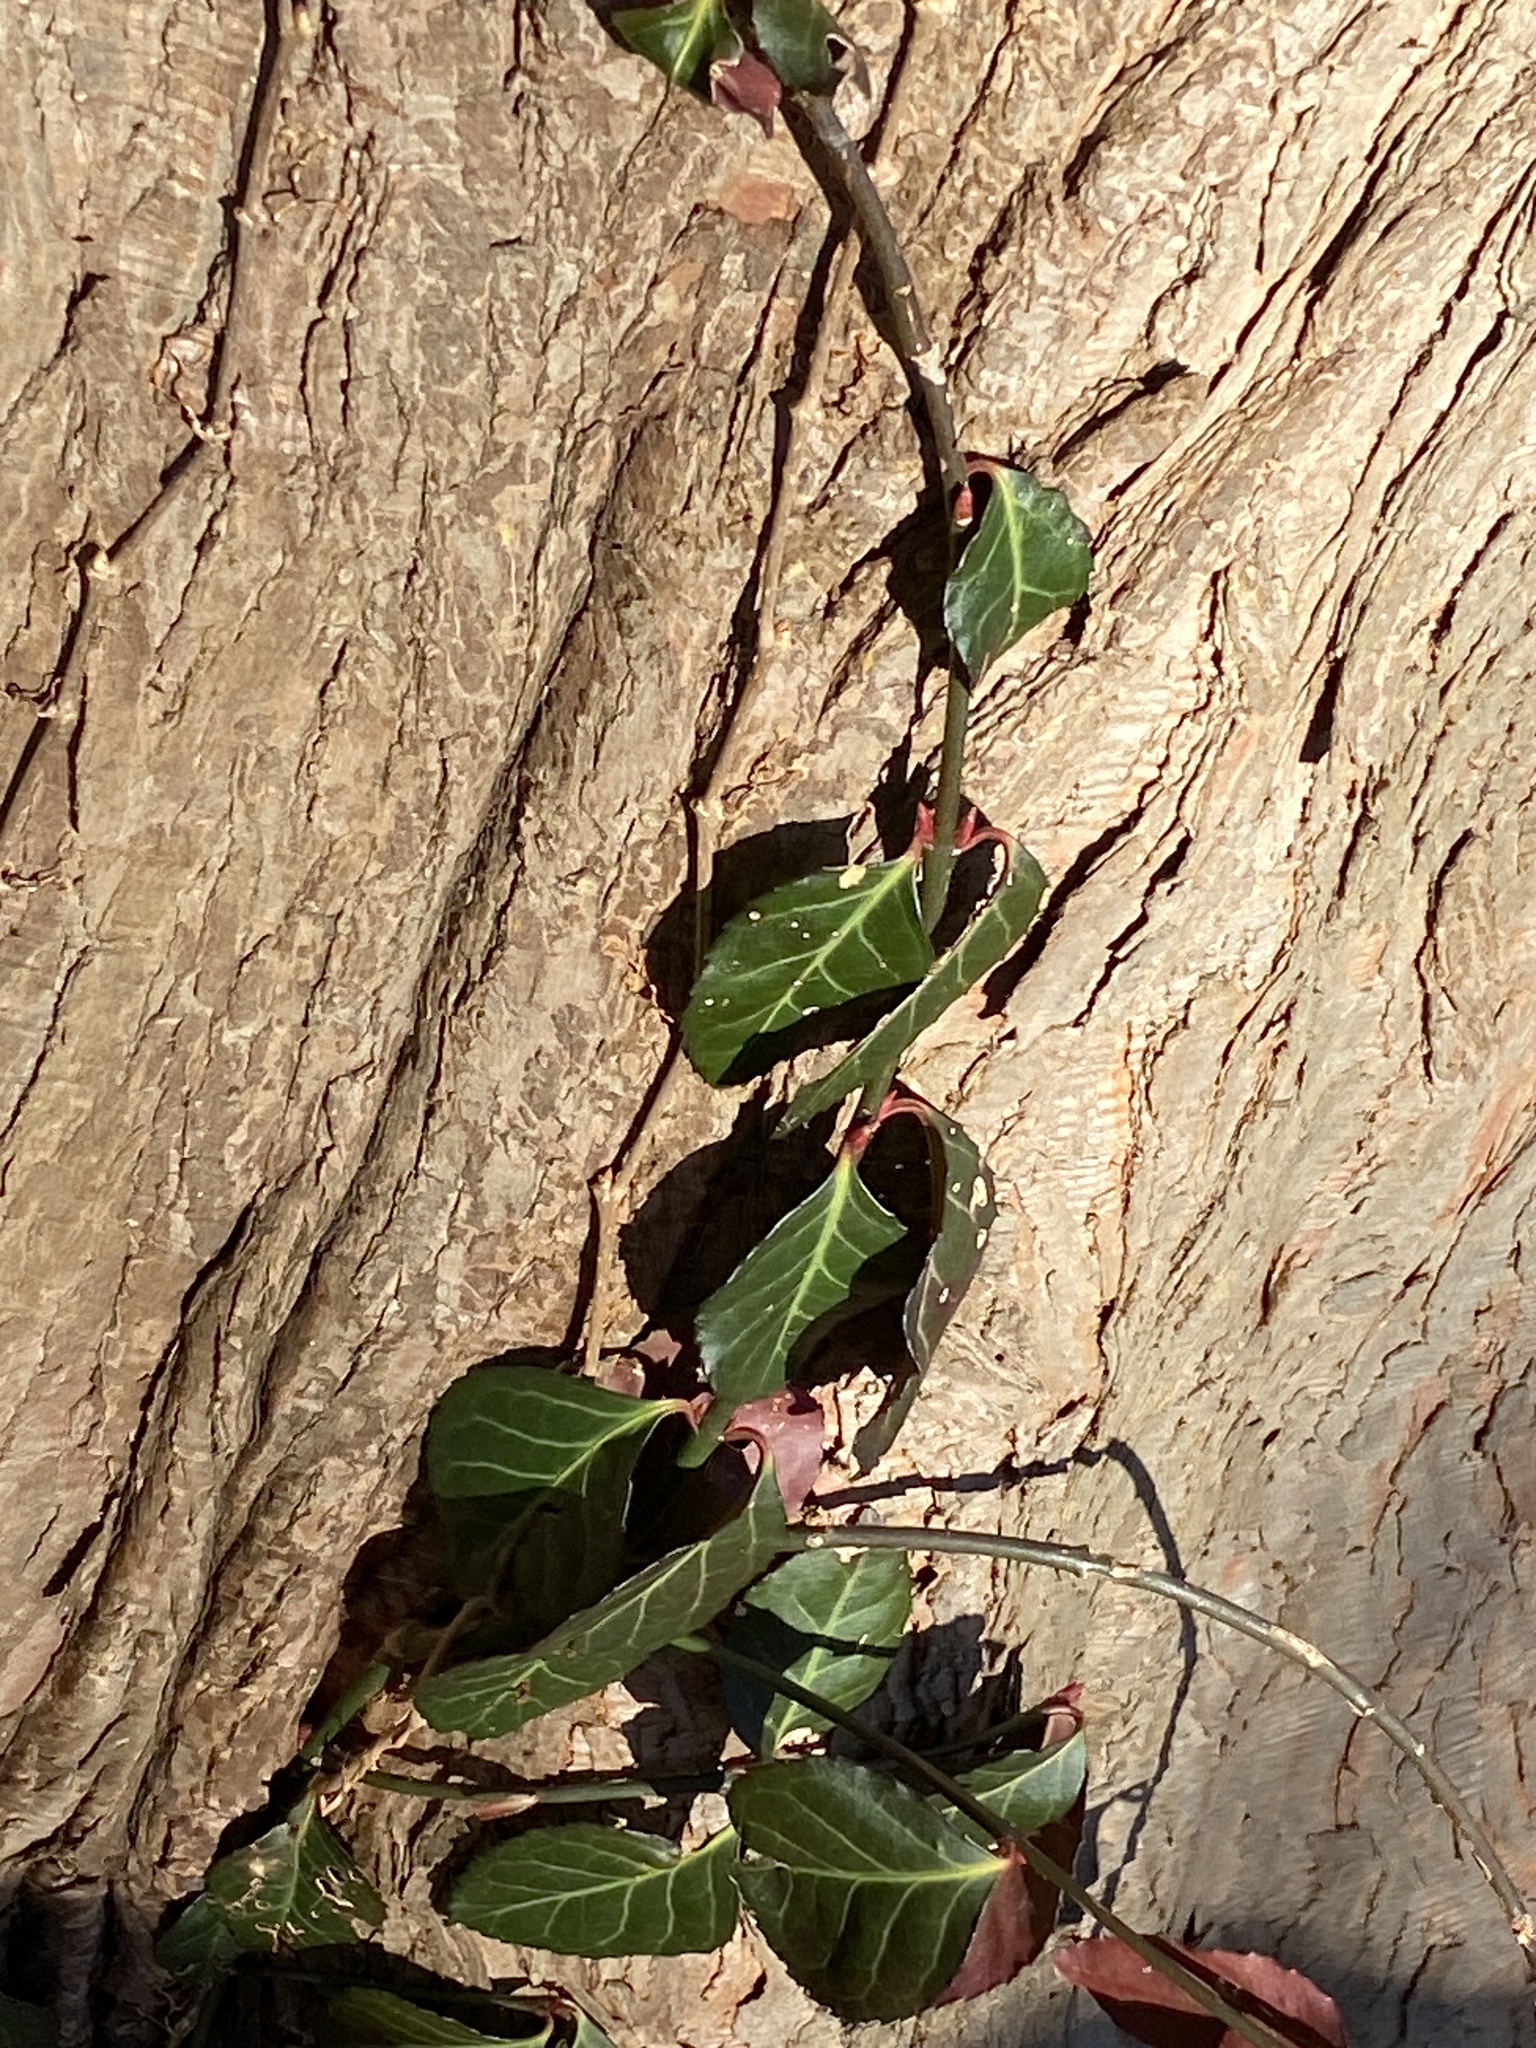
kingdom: Plantae
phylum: Tracheophyta
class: Magnoliopsida
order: Celastrales
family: Celastraceae
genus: Euonymus
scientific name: Euonymus fortunei
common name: Climbing euonymus
